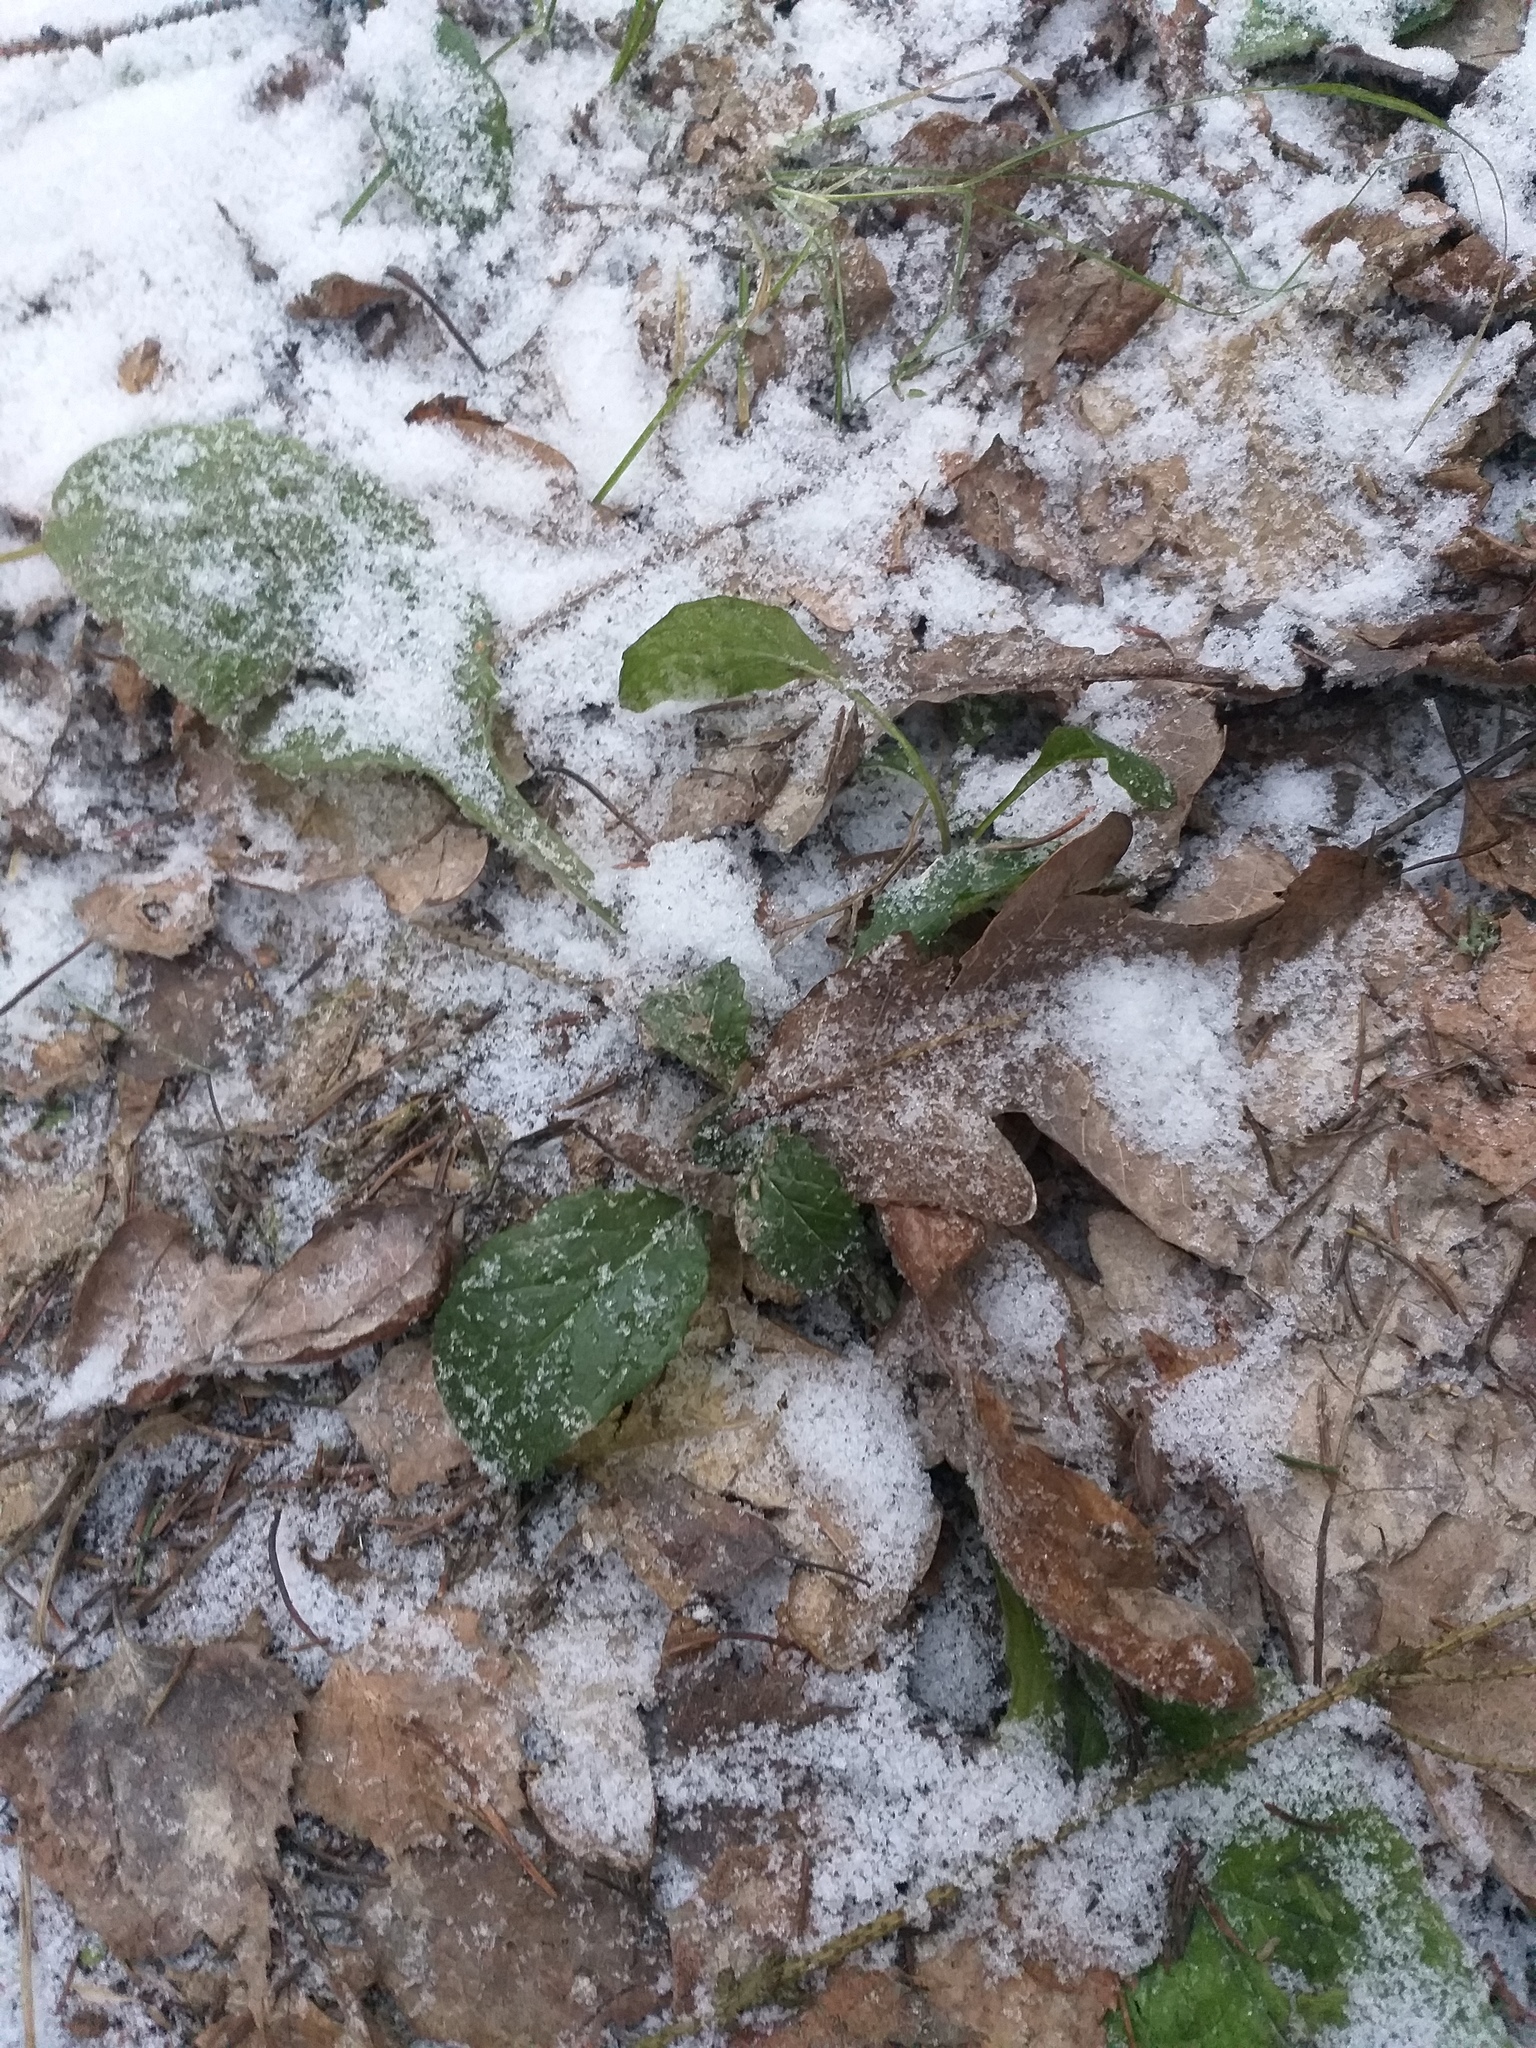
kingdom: Plantae
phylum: Tracheophyta
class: Magnoliopsida
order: Lamiales
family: Lamiaceae
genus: Ajuga
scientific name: Ajuga reptans
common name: Bugle
